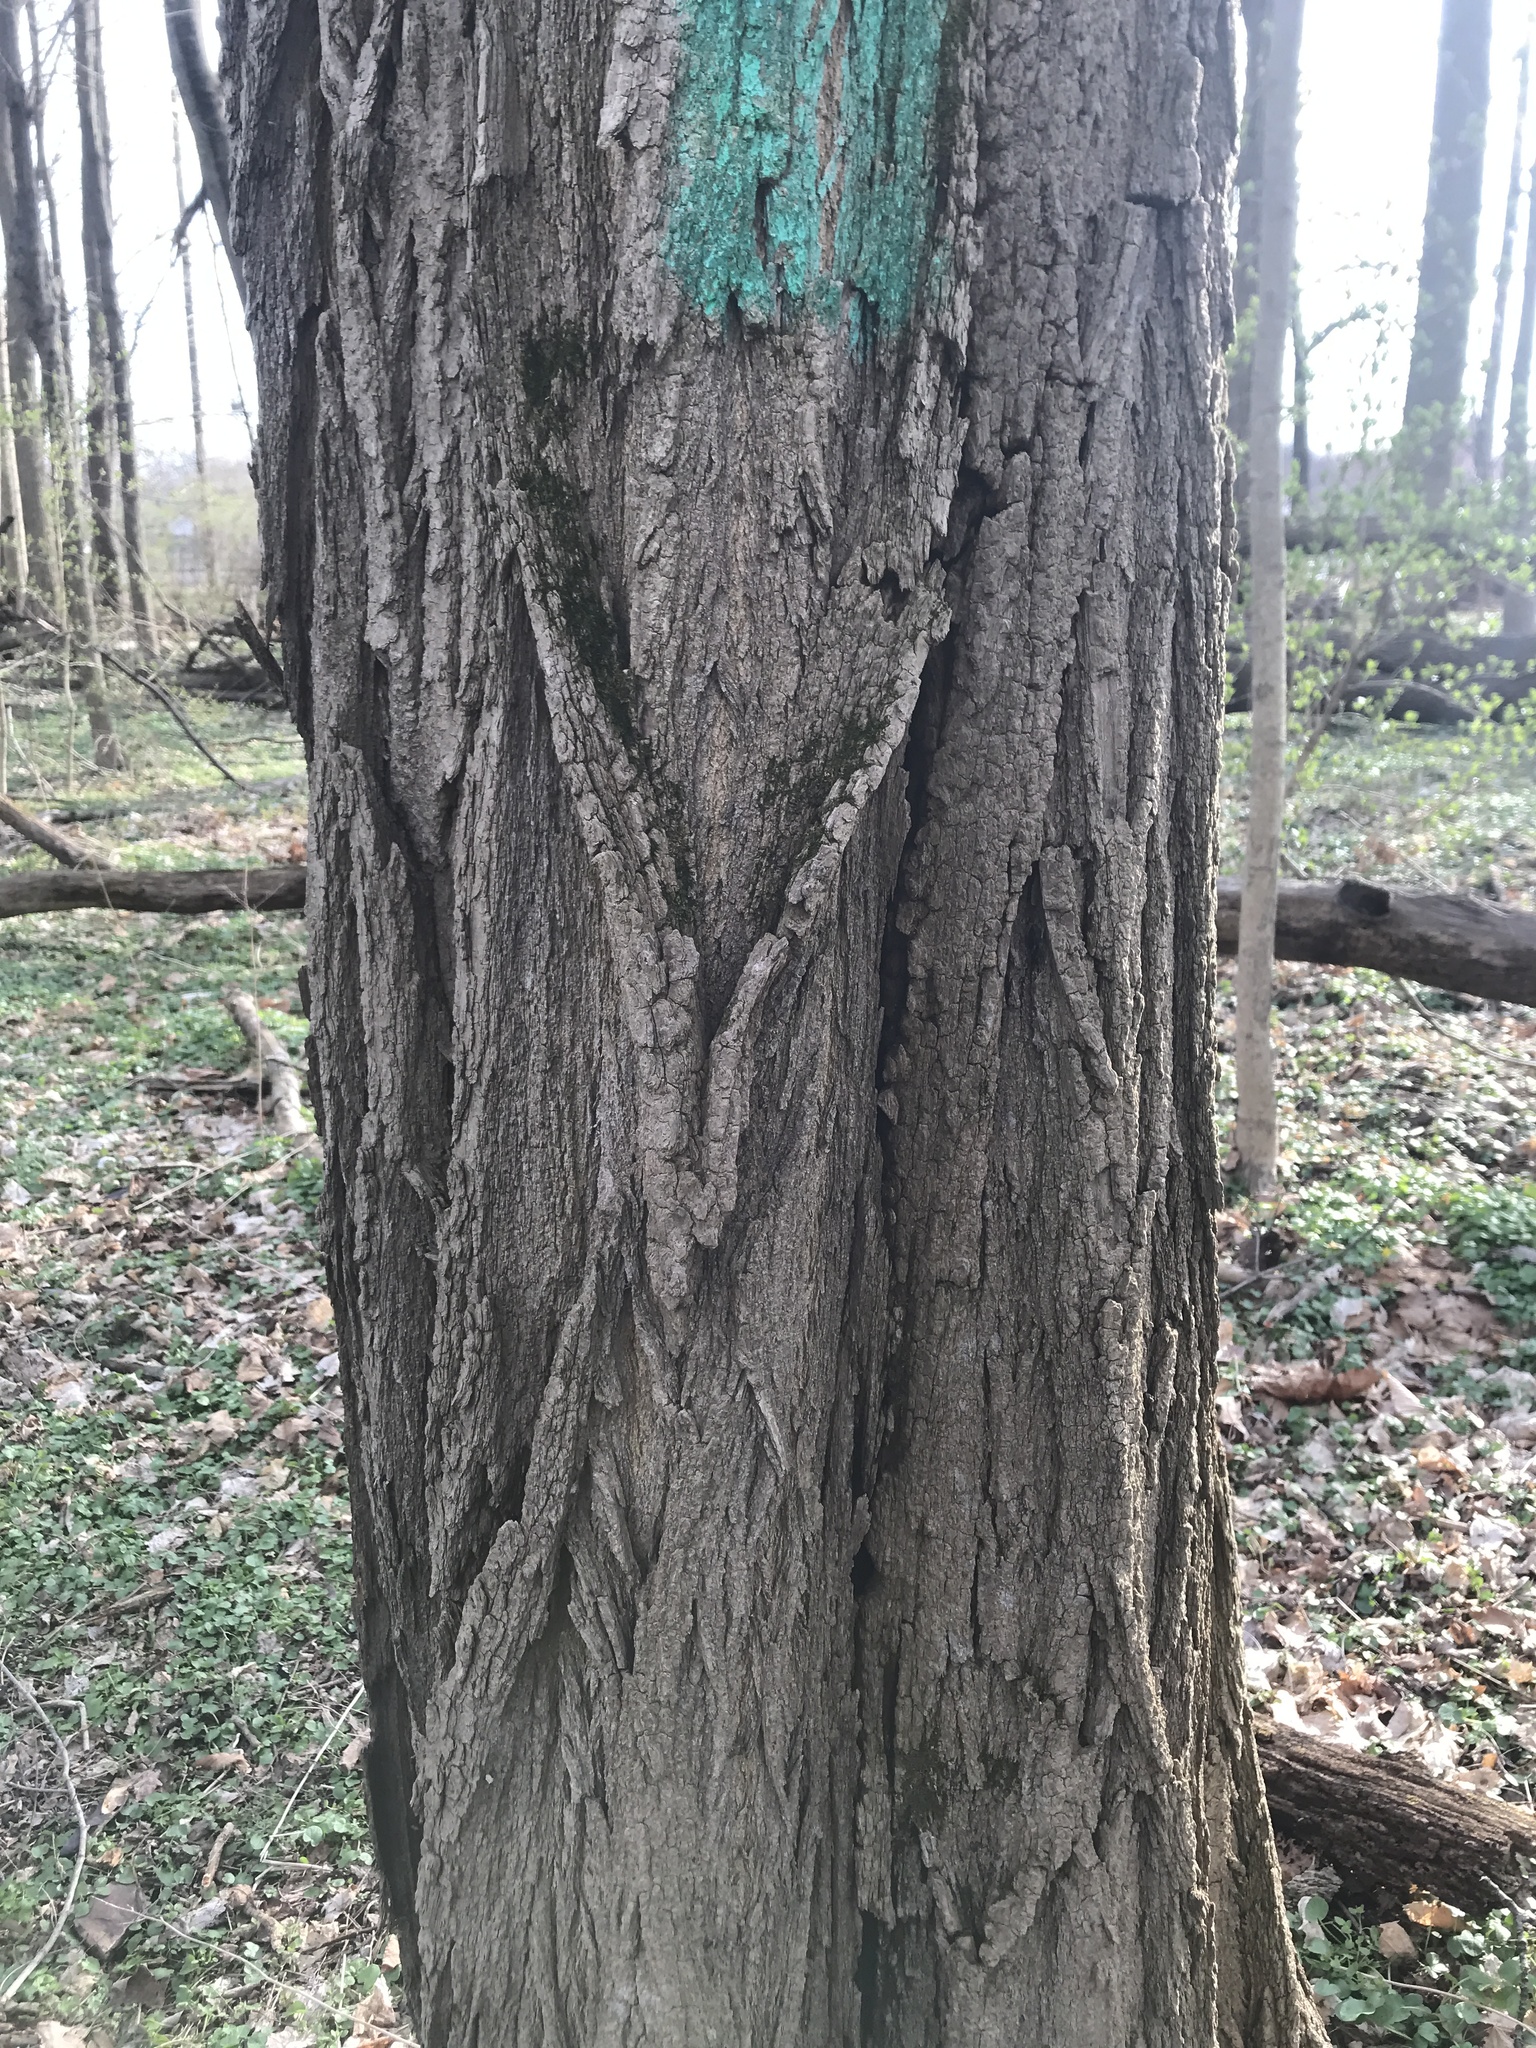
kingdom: Plantae
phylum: Tracheophyta
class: Magnoliopsida
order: Fabales
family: Fabaceae
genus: Robinia
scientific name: Robinia pseudoacacia
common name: Black locust
